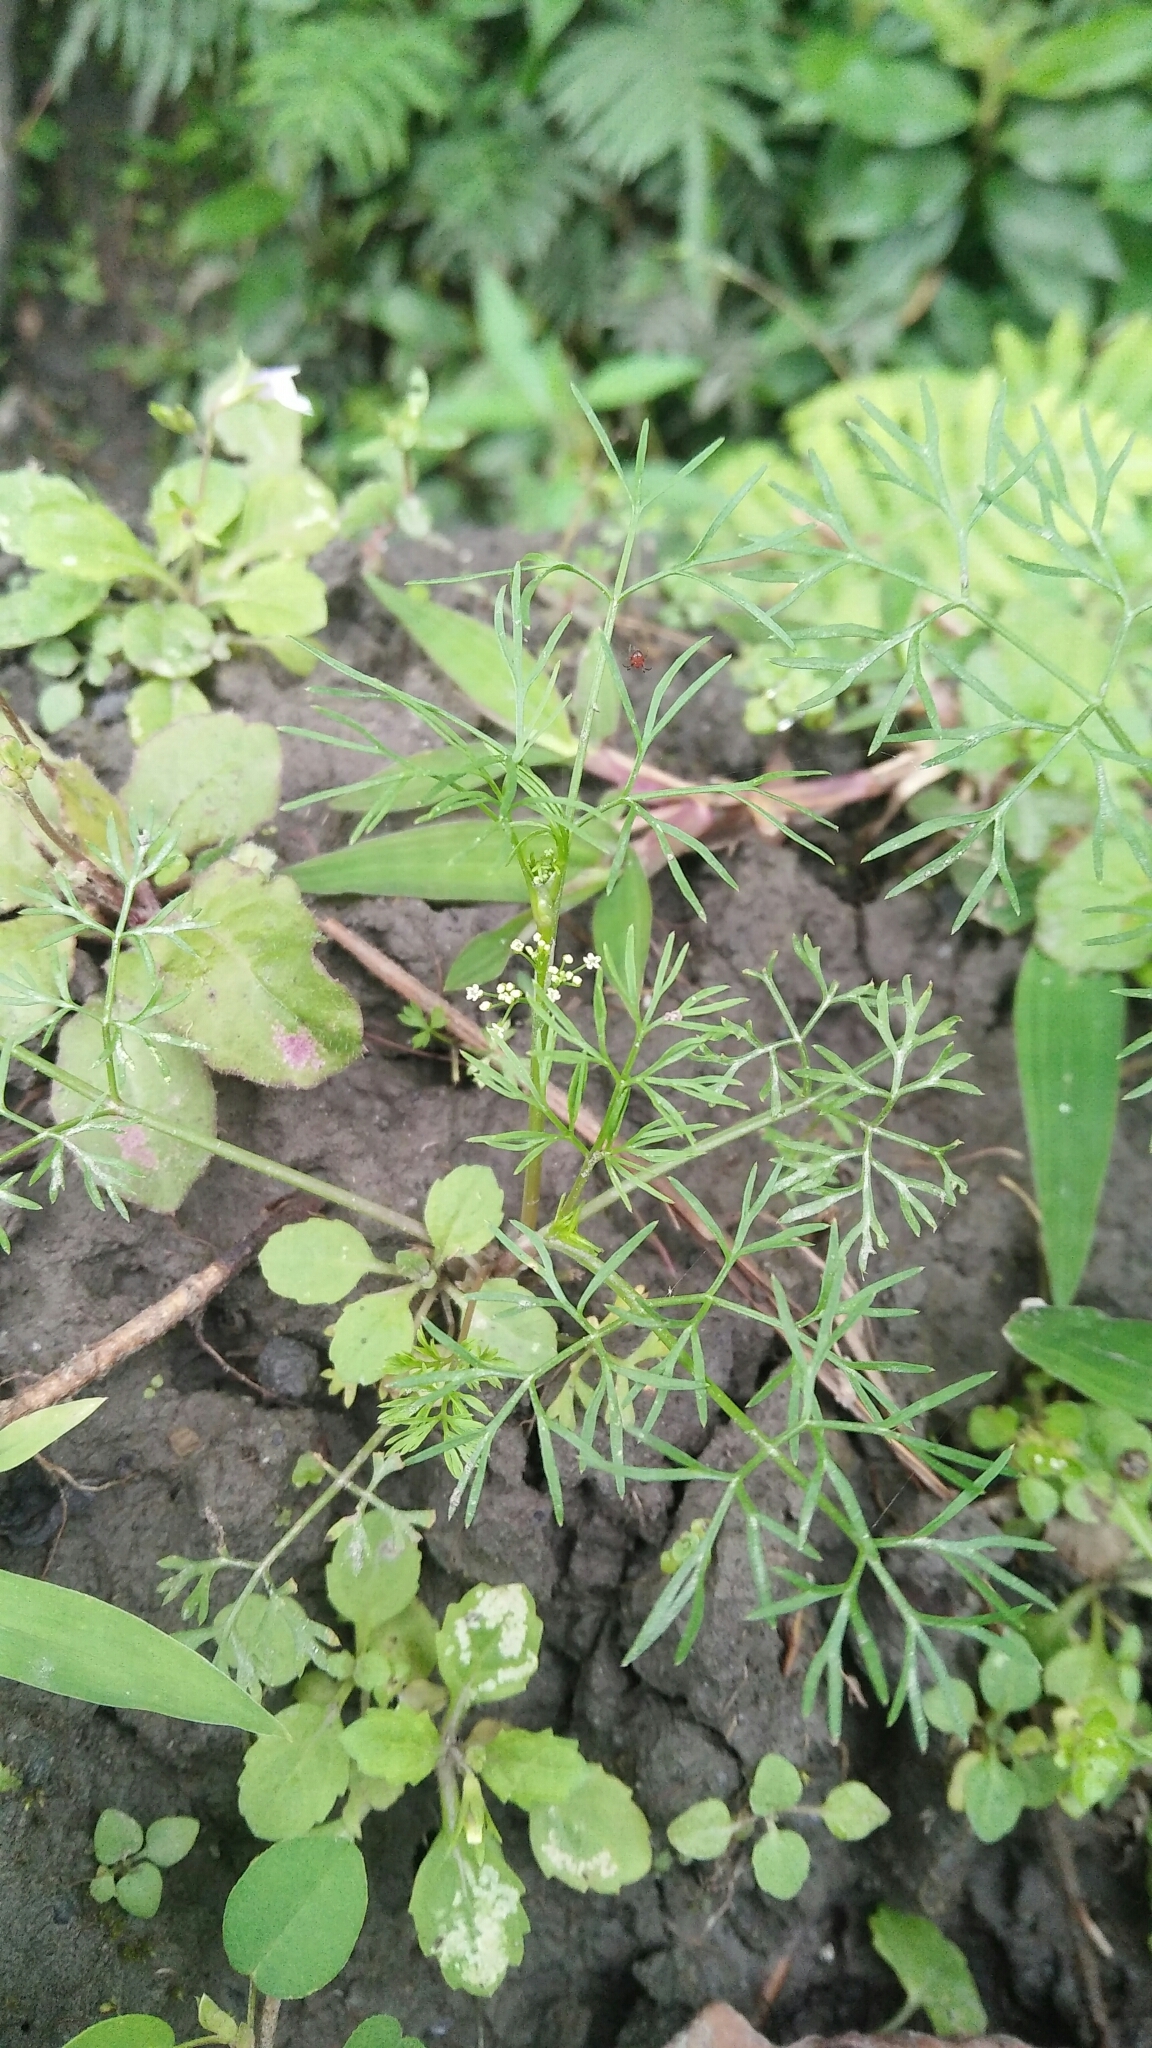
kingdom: Plantae
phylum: Tracheophyta
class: Magnoliopsida
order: Apiales
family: Apiaceae
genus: Cyclospermum
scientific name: Cyclospermum leptophyllum
